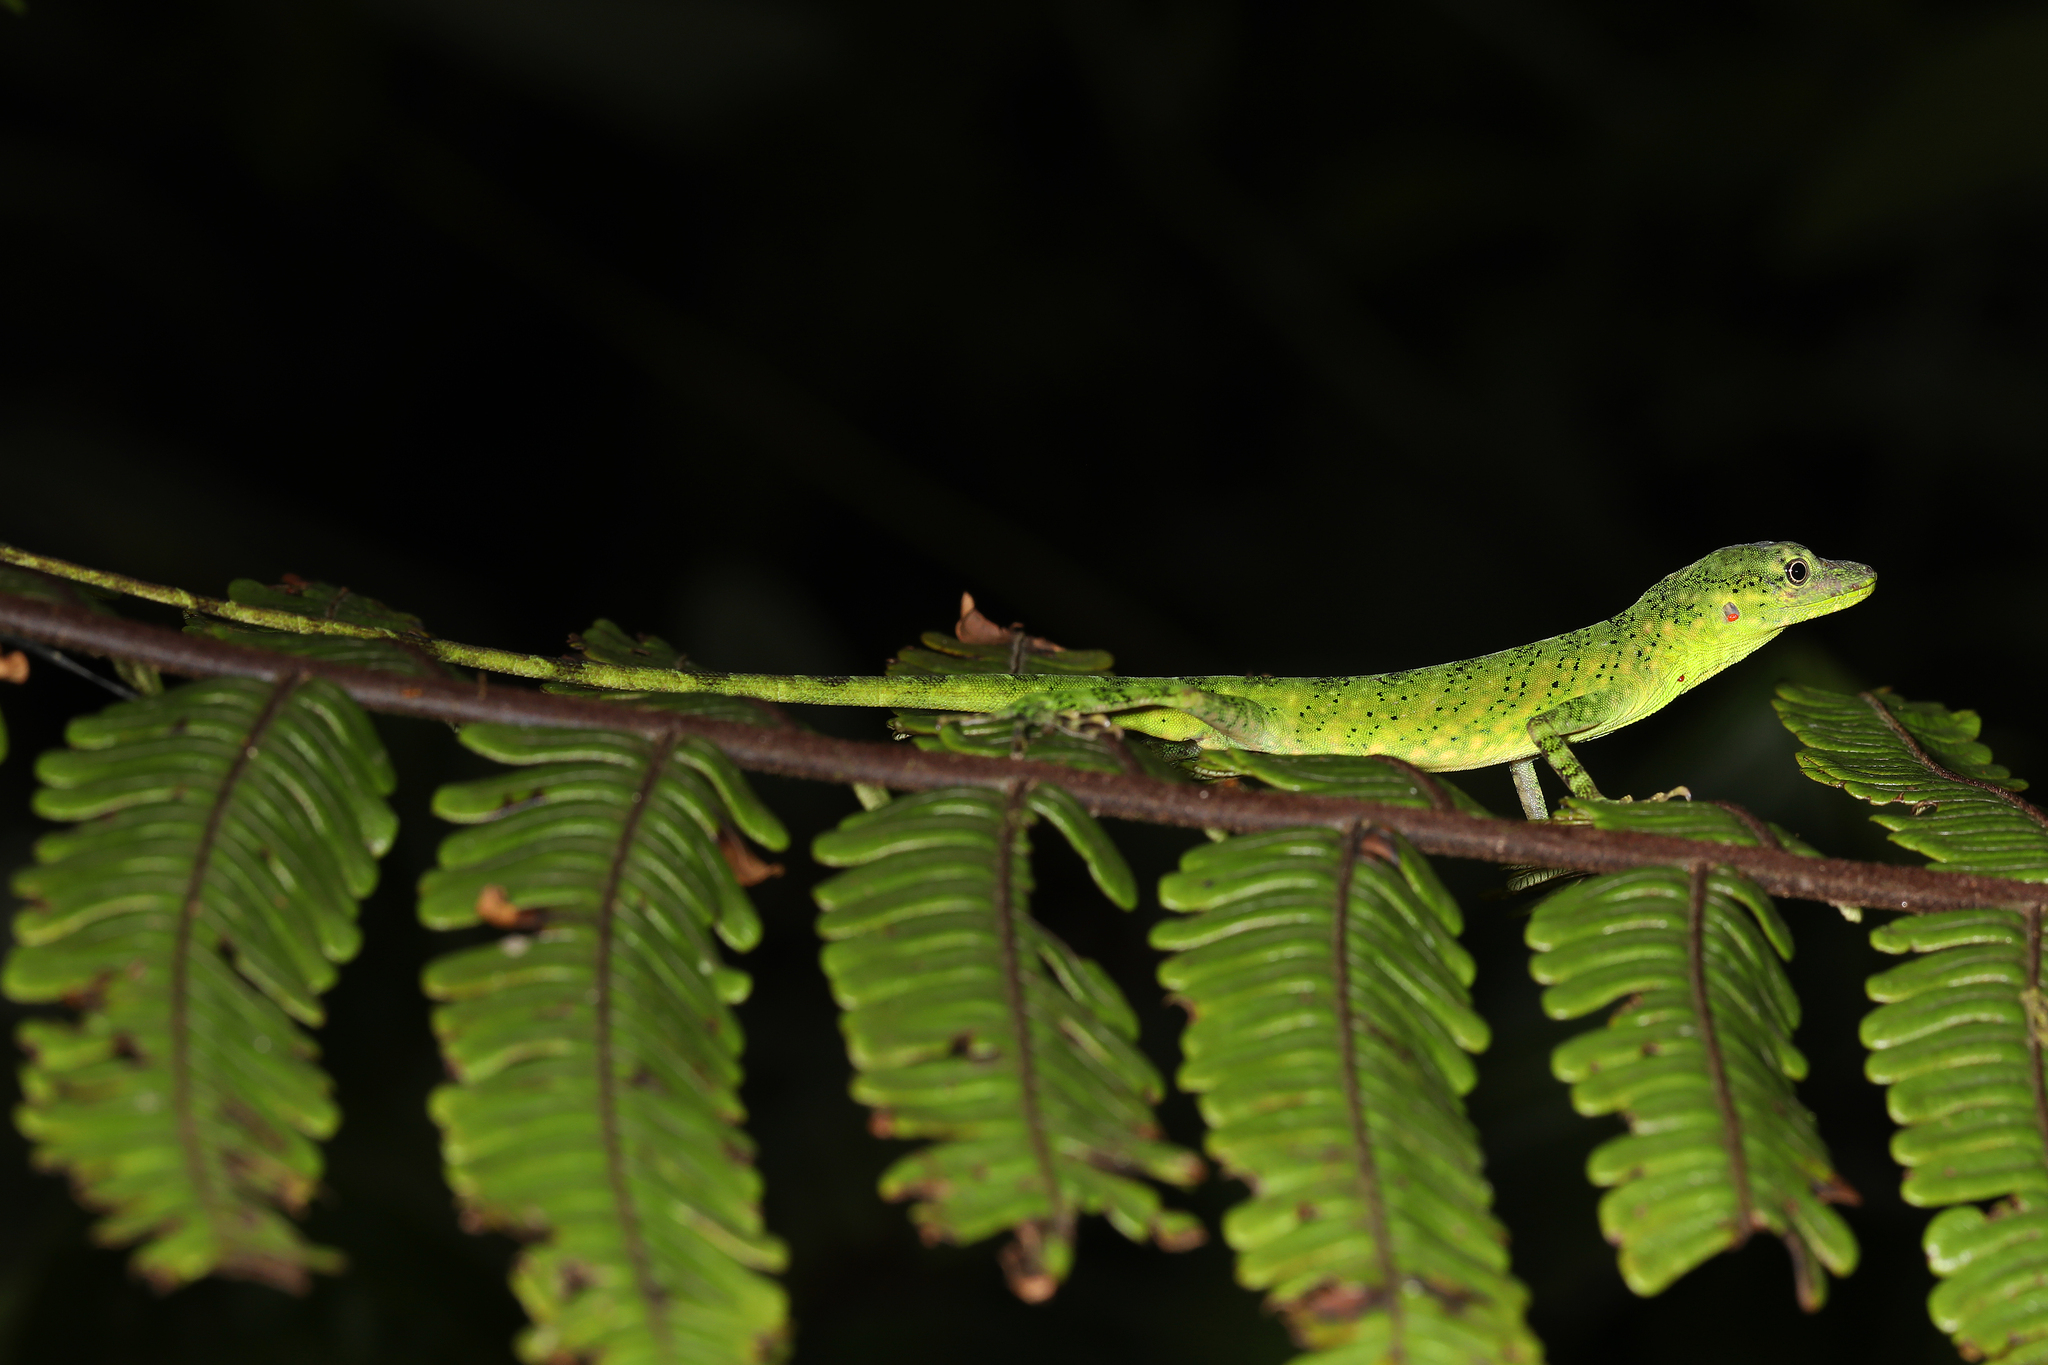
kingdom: Animalia
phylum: Chordata
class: Squamata
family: Dactyloidae
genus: Anolis
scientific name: Anolis gemmosus
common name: O'shaughnessy's anole
